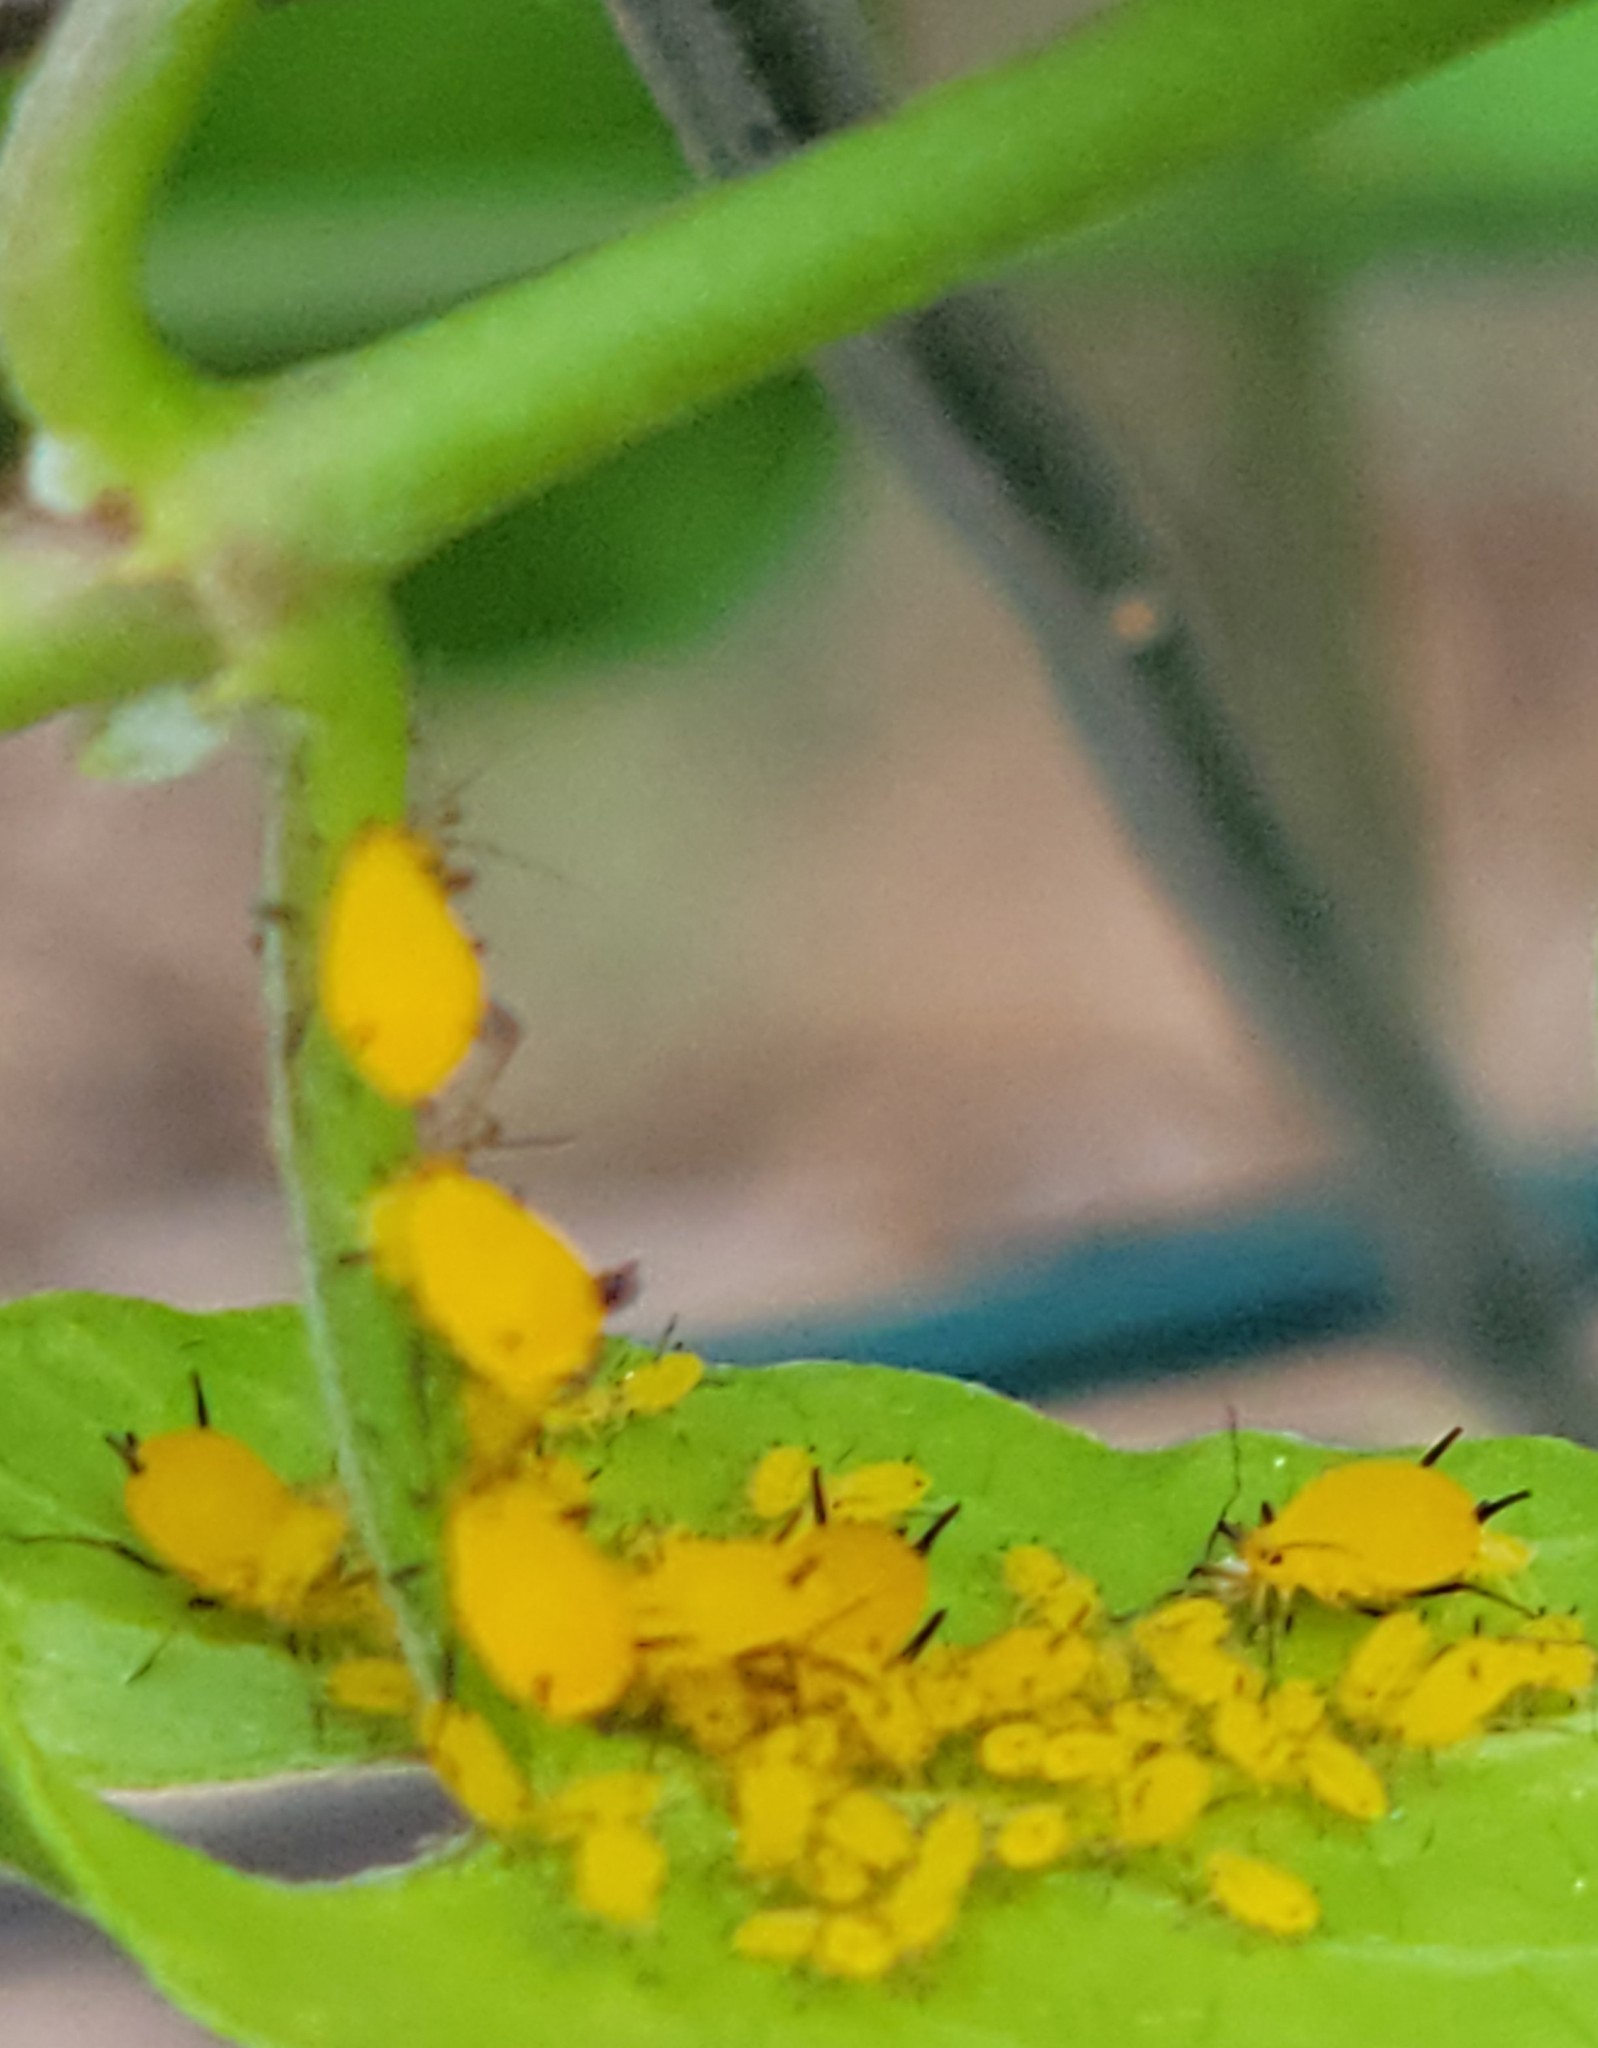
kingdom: Animalia
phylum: Arthropoda
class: Insecta
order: Hemiptera
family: Aphididae
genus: Aphis
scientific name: Aphis nerii
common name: Oleander aphid
